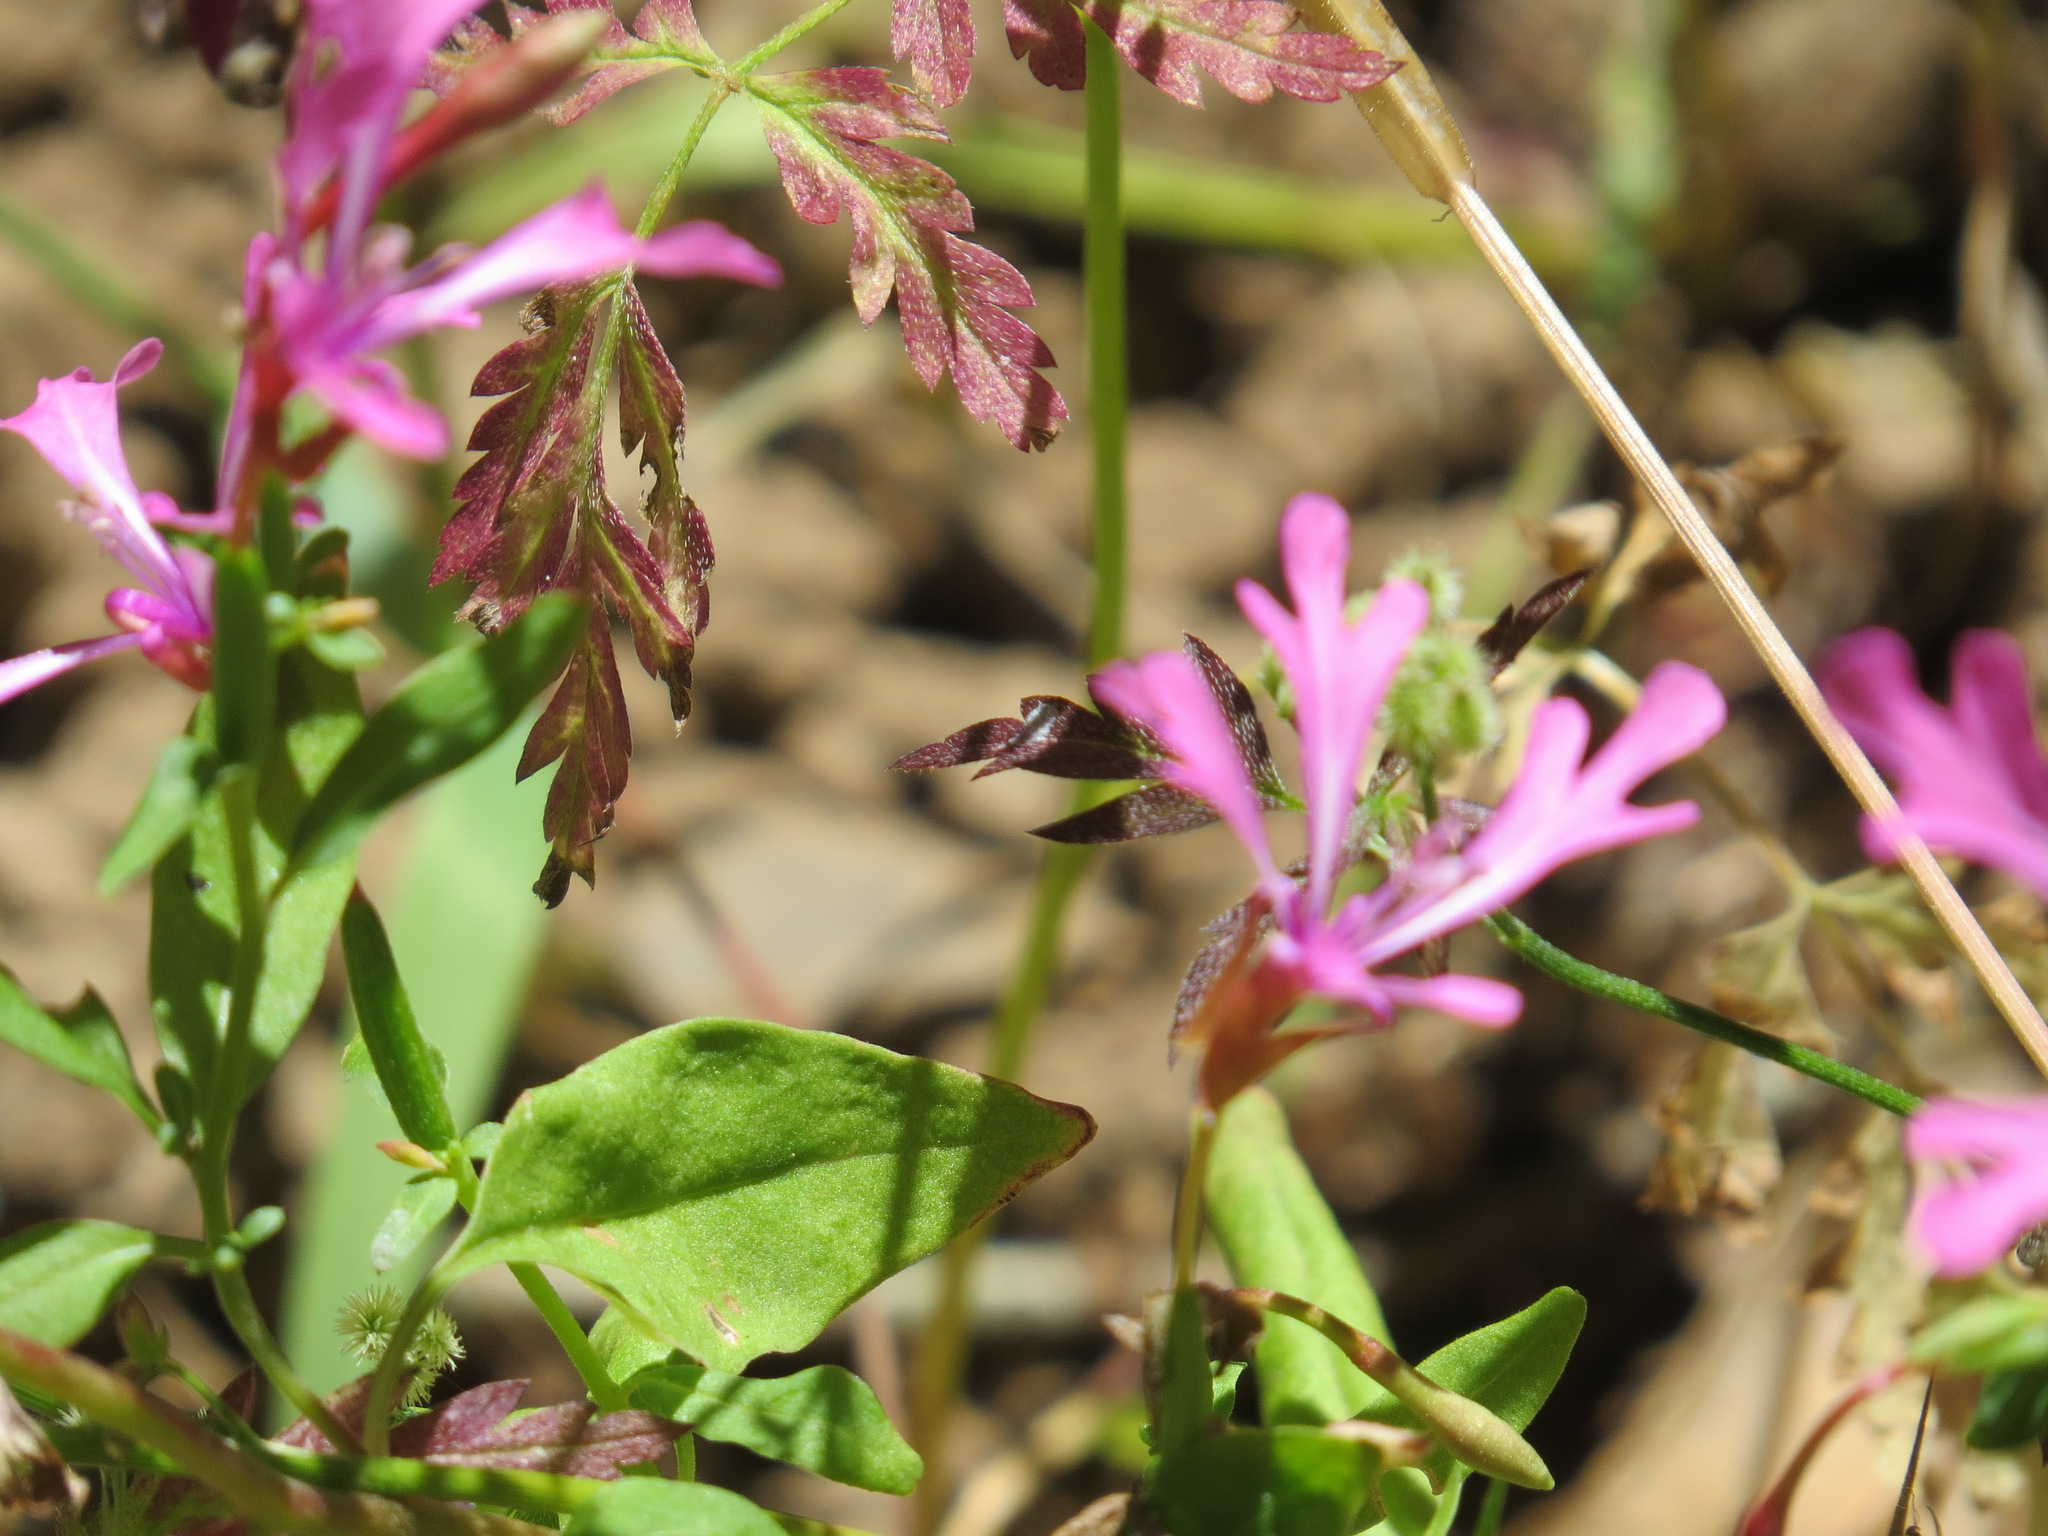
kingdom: Plantae
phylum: Tracheophyta
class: Magnoliopsida
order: Myrtales
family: Onagraceae
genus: Clarkia
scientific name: Clarkia concinna
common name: Red-ribbons
